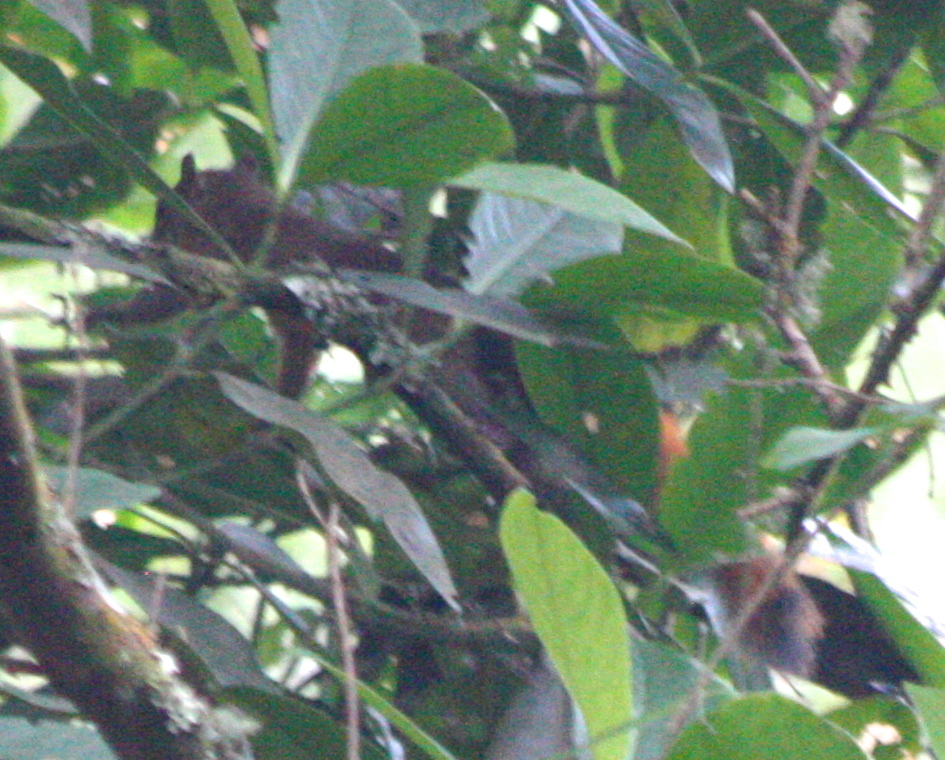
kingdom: Animalia
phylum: Chordata
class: Mammalia
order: Rodentia
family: Sciuridae
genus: Sciurus
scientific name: Sciurus granatensis
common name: Red-tailed squirrel
